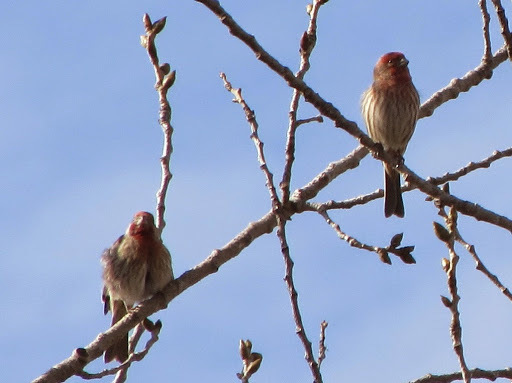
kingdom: Animalia
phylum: Chordata
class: Aves
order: Passeriformes
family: Fringillidae
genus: Haemorhous
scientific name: Haemorhous mexicanus
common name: House finch
